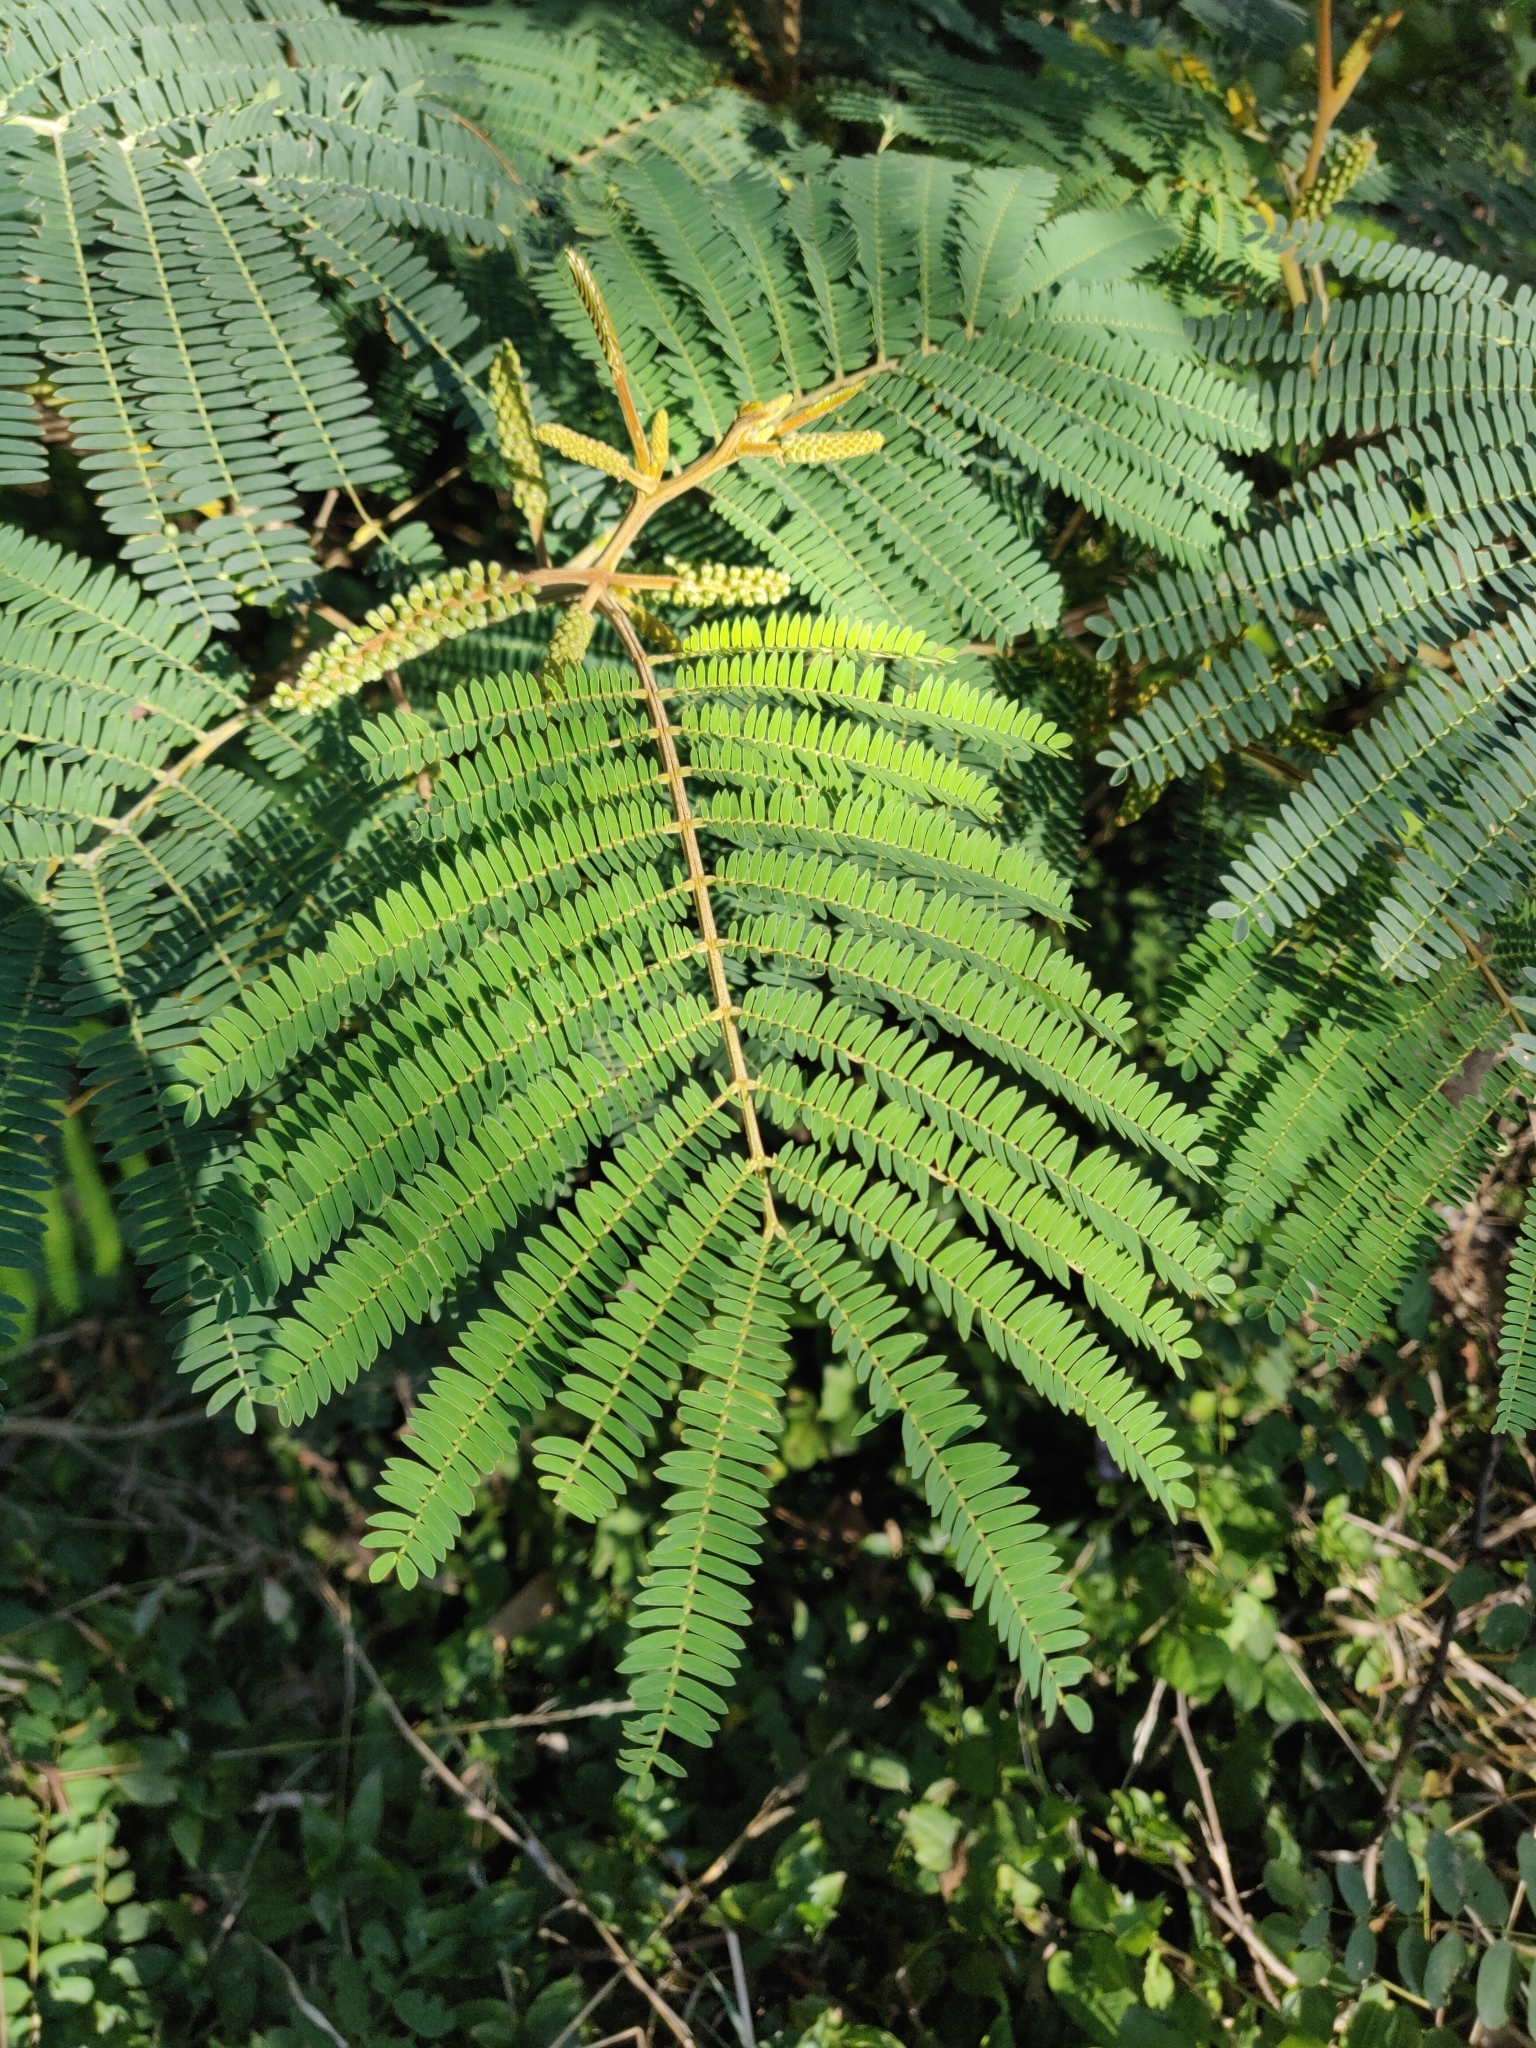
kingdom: Plantae
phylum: Tracheophyta
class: Magnoliopsida
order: Fabales
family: Fabaceae
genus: Paraserianthes
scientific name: Paraserianthes lophantha
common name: Plume albizia
